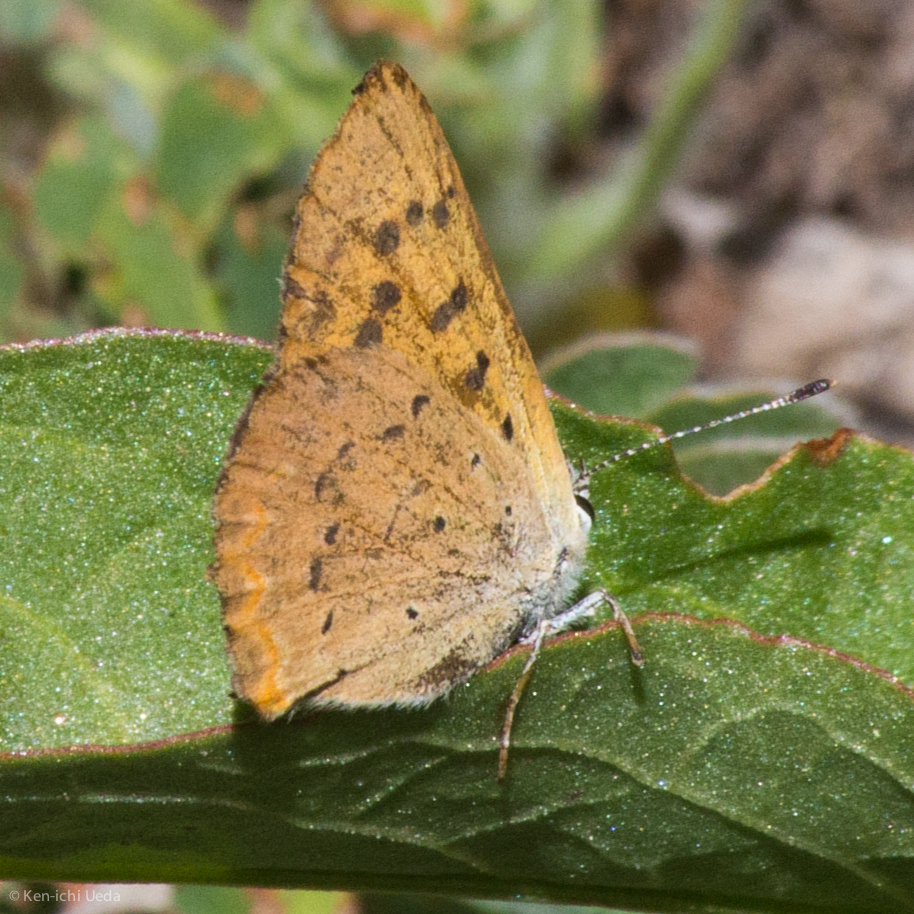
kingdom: Animalia
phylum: Arthropoda
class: Insecta
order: Lepidoptera
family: Lycaenidae
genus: Tharsalea
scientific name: Tharsalea helloides
